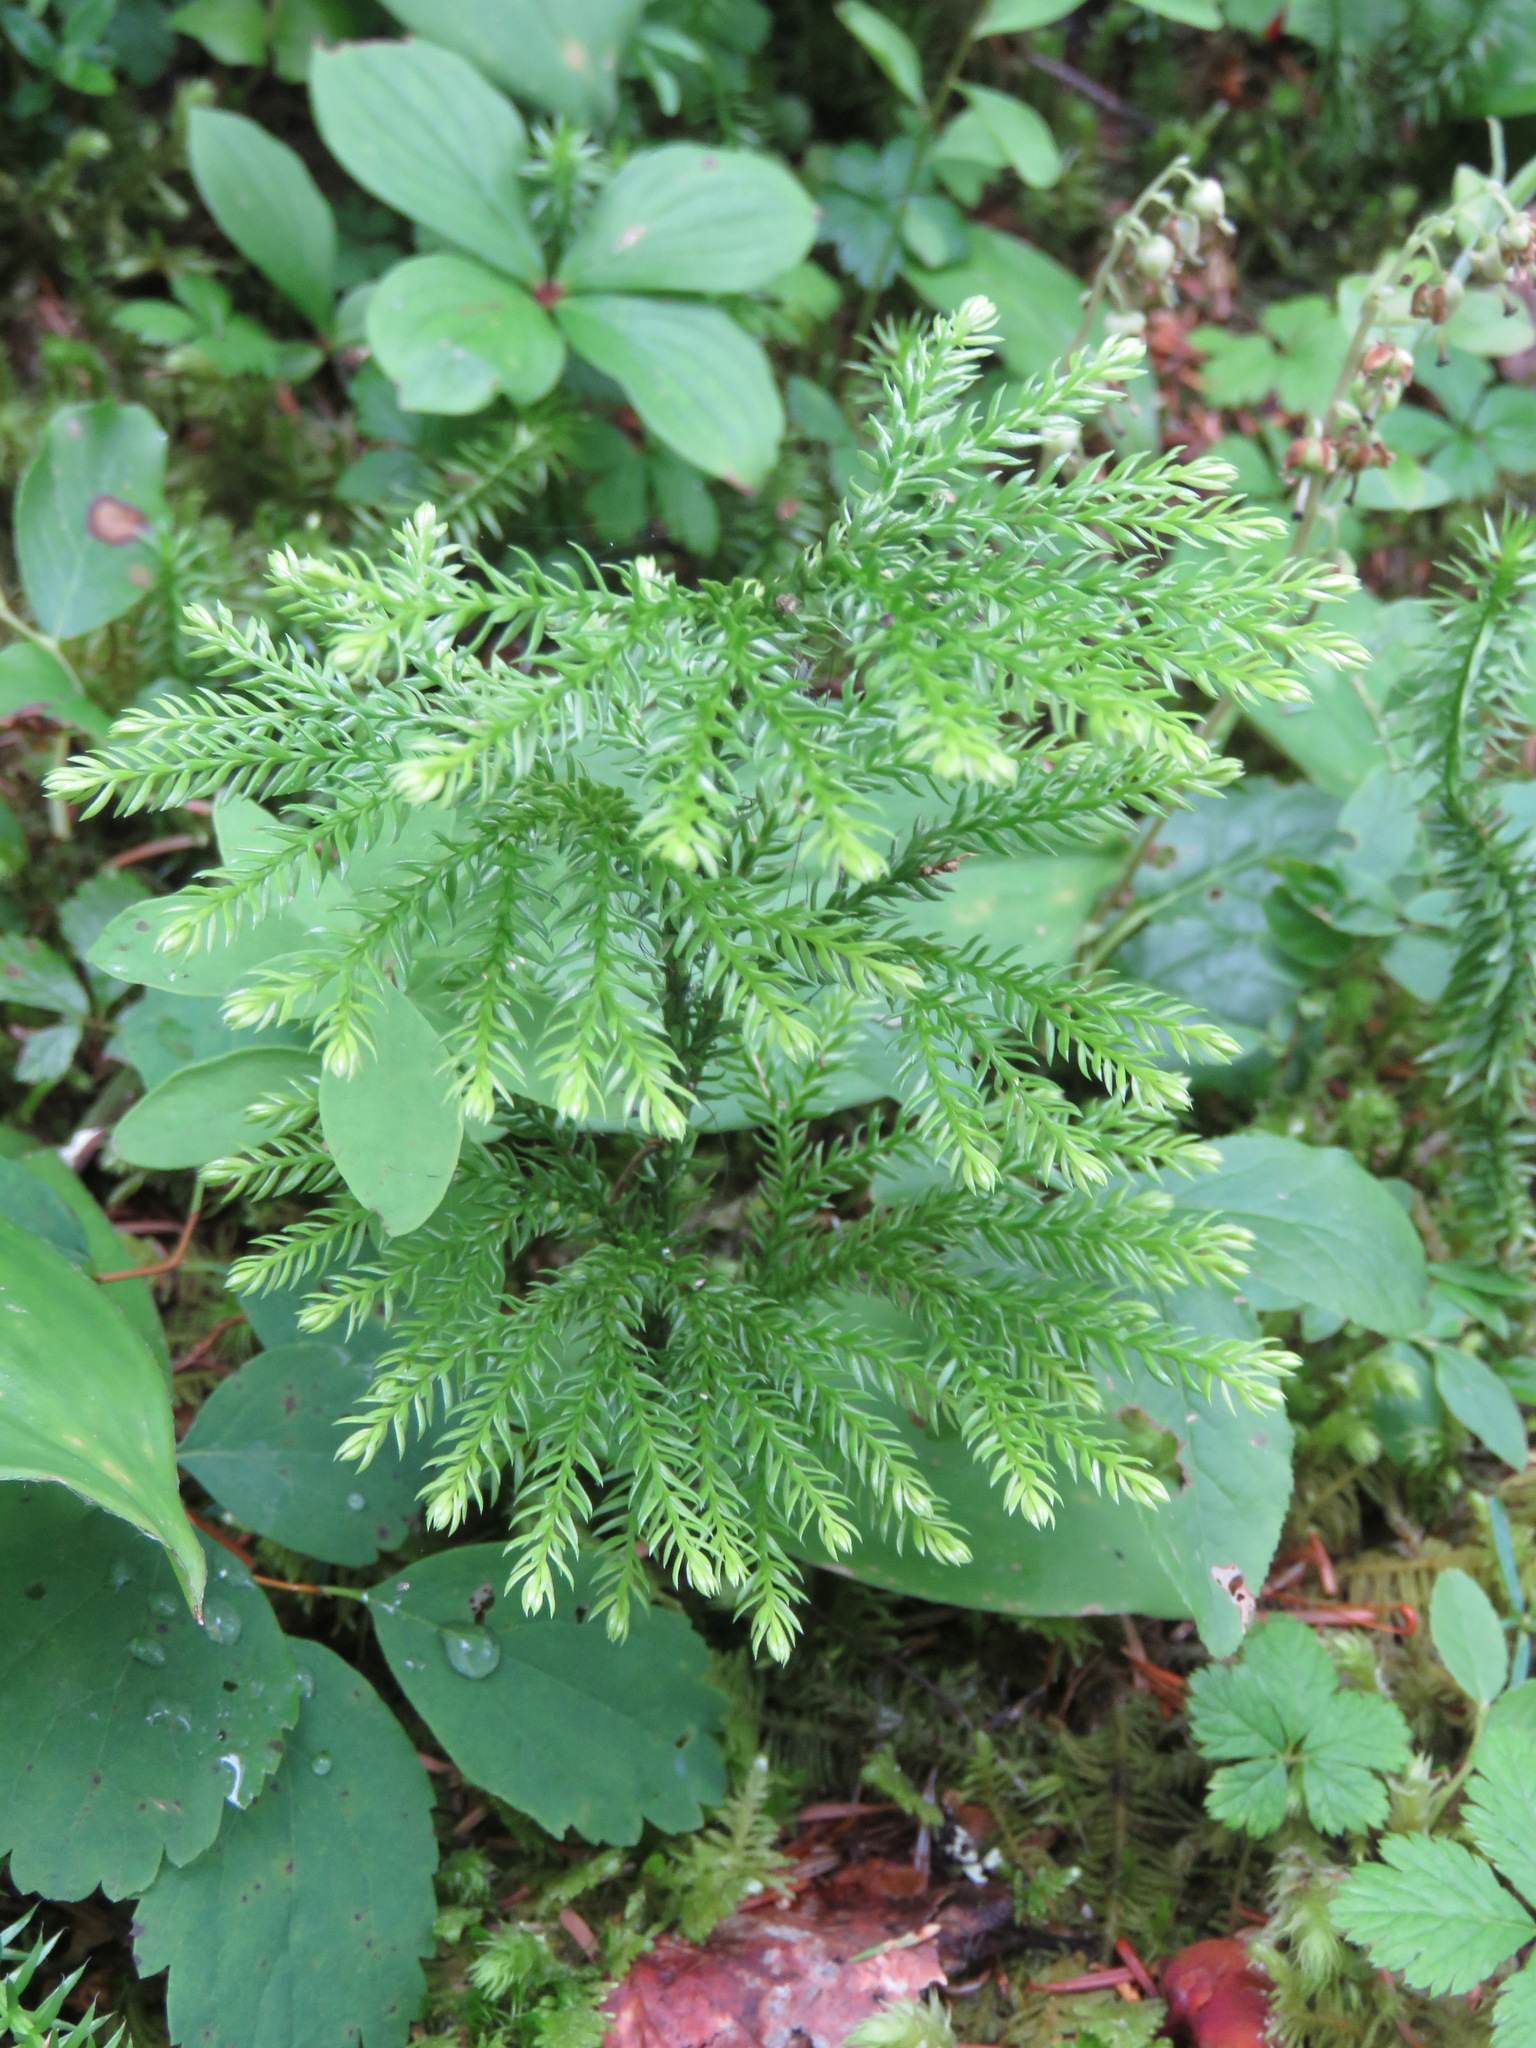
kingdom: Plantae
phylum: Tracheophyta
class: Lycopodiopsida
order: Lycopodiales
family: Lycopodiaceae
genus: Dendrolycopodium
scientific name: Dendrolycopodium dendroideum
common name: Northern tree-clubmoss
